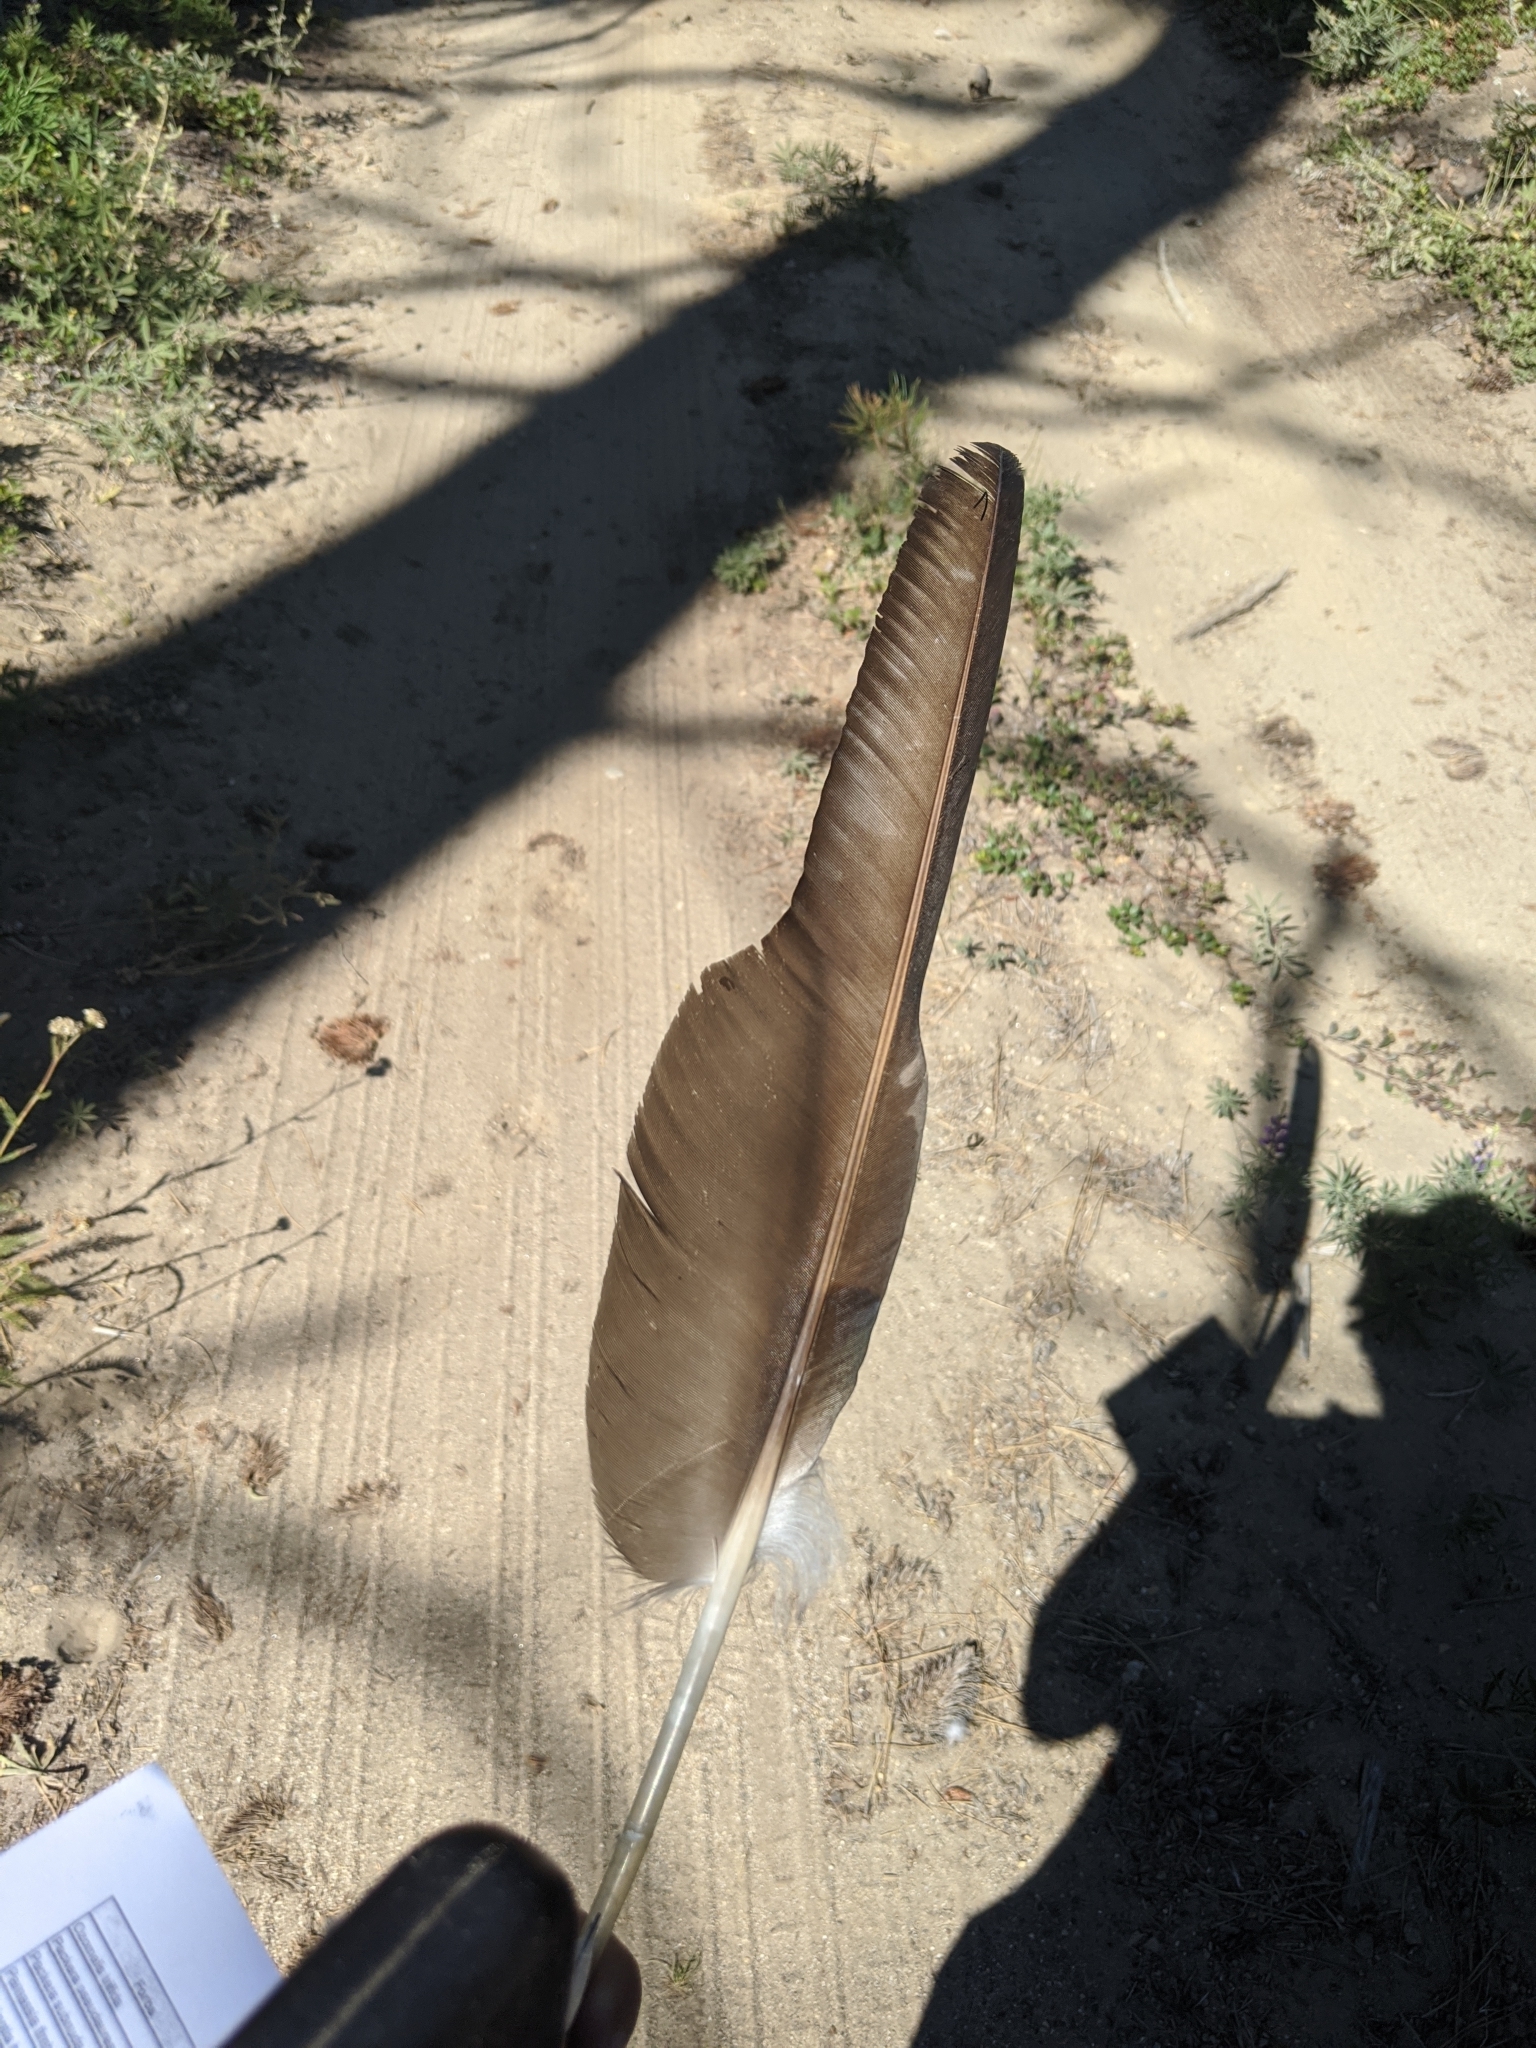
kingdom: Animalia
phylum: Chordata
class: Aves
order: Accipitriformes
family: Cathartidae
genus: Cathartes
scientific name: Cathartes aura
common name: Turkey vulture
